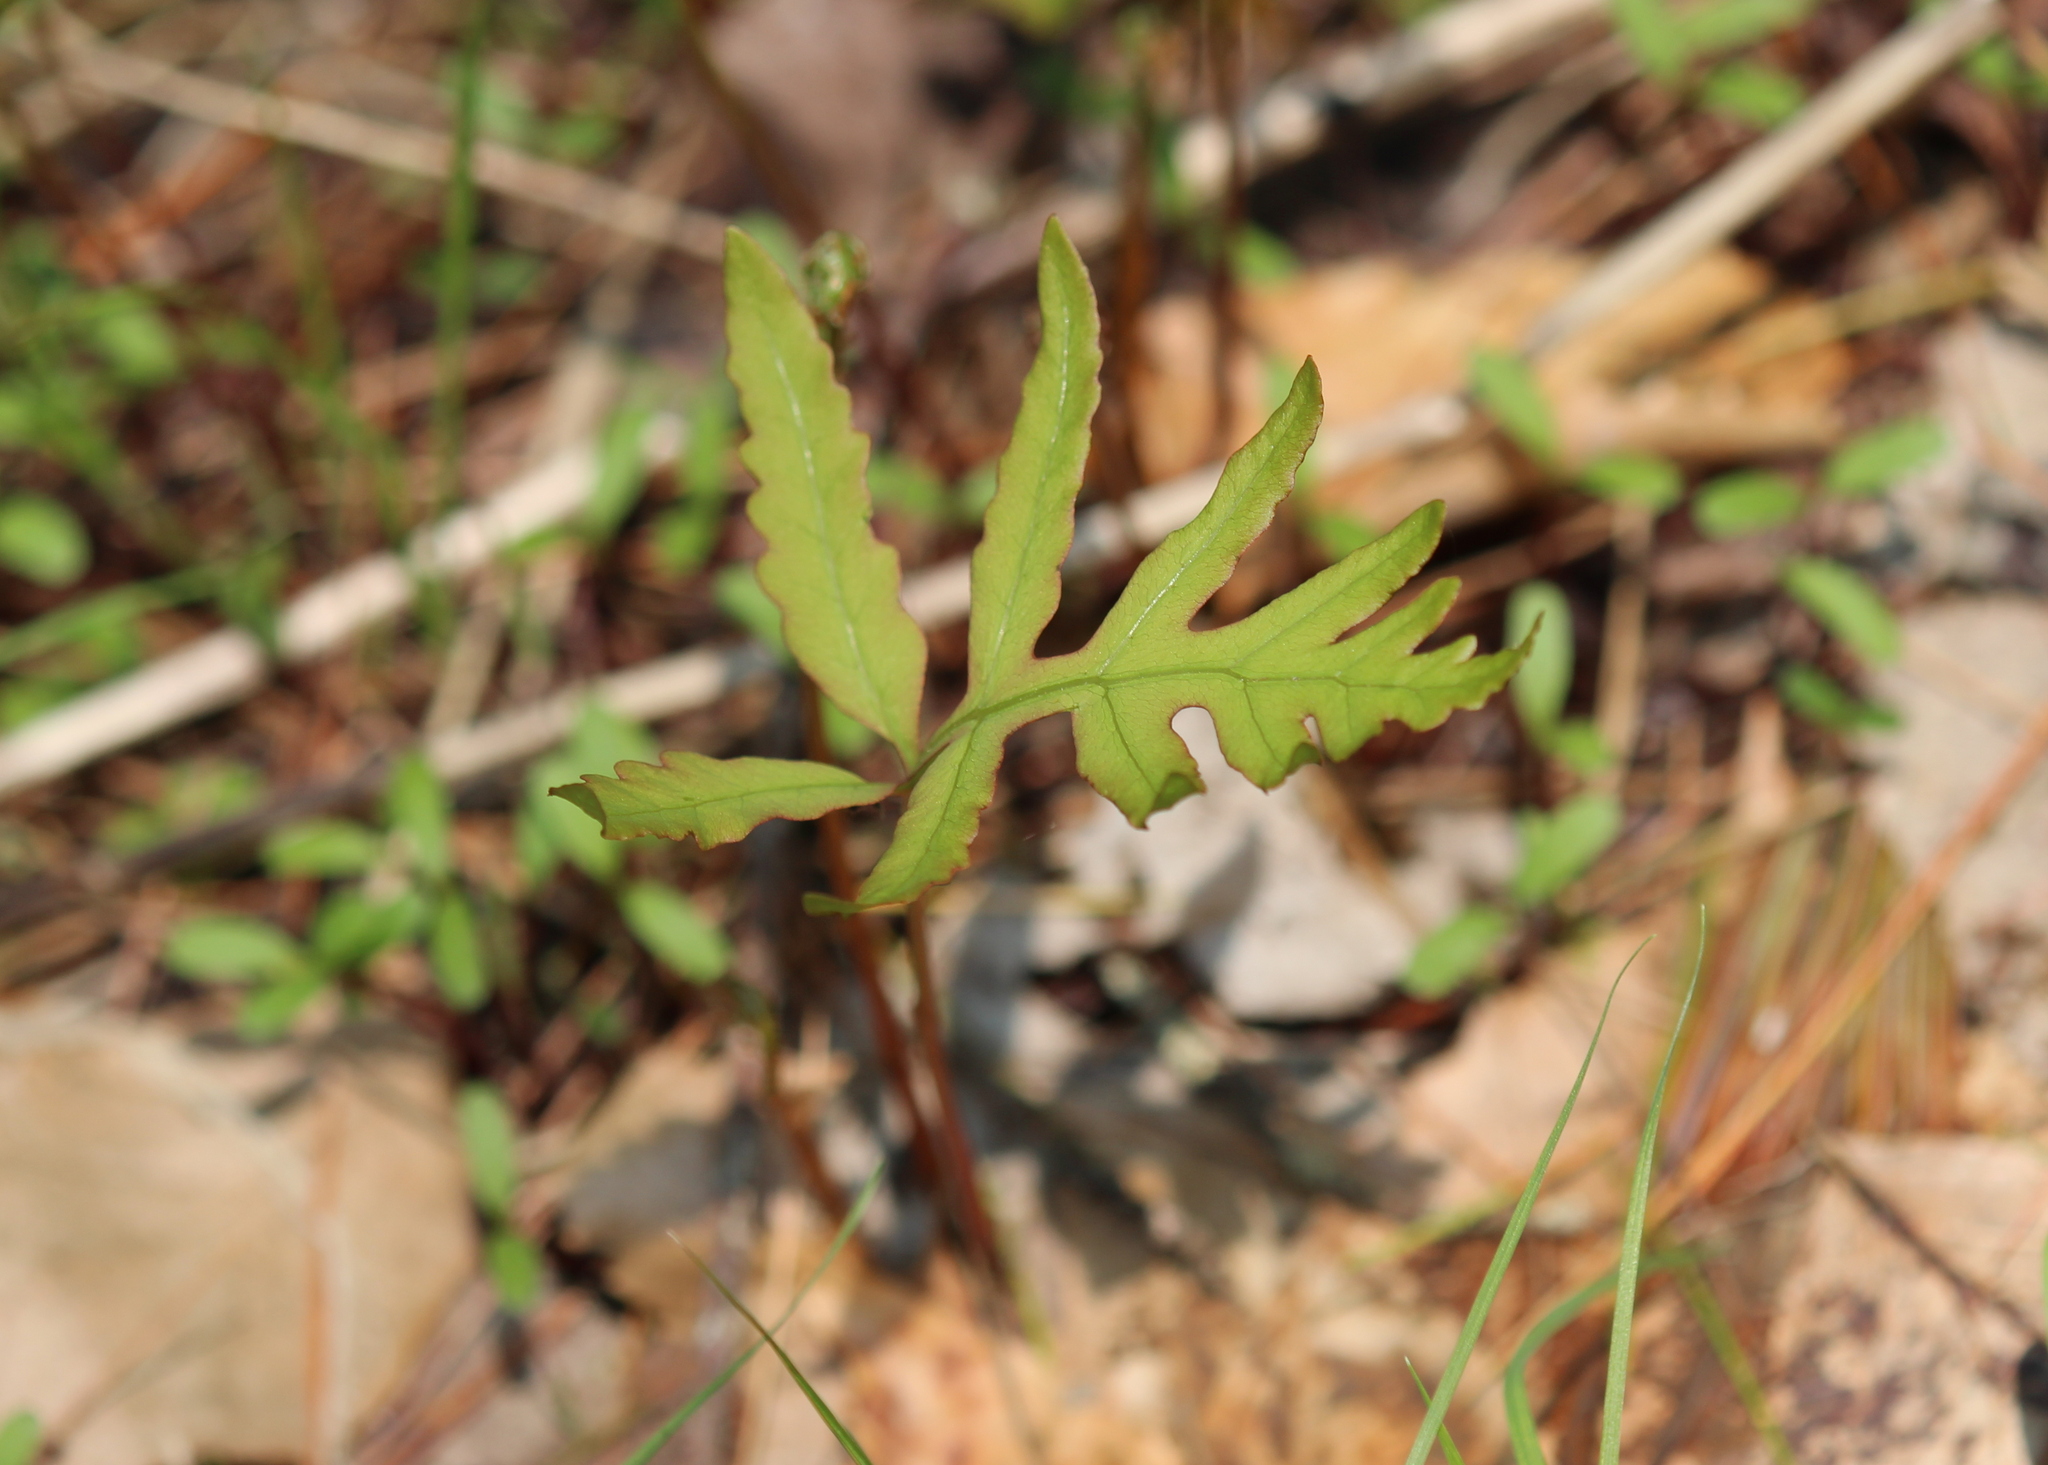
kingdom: Plantae
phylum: Tracheophyta
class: Polypodiopsida
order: Polypodiales
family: Onocleaceae
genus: Onoclea
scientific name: Onoclea sensibilis
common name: Sensitive fern
